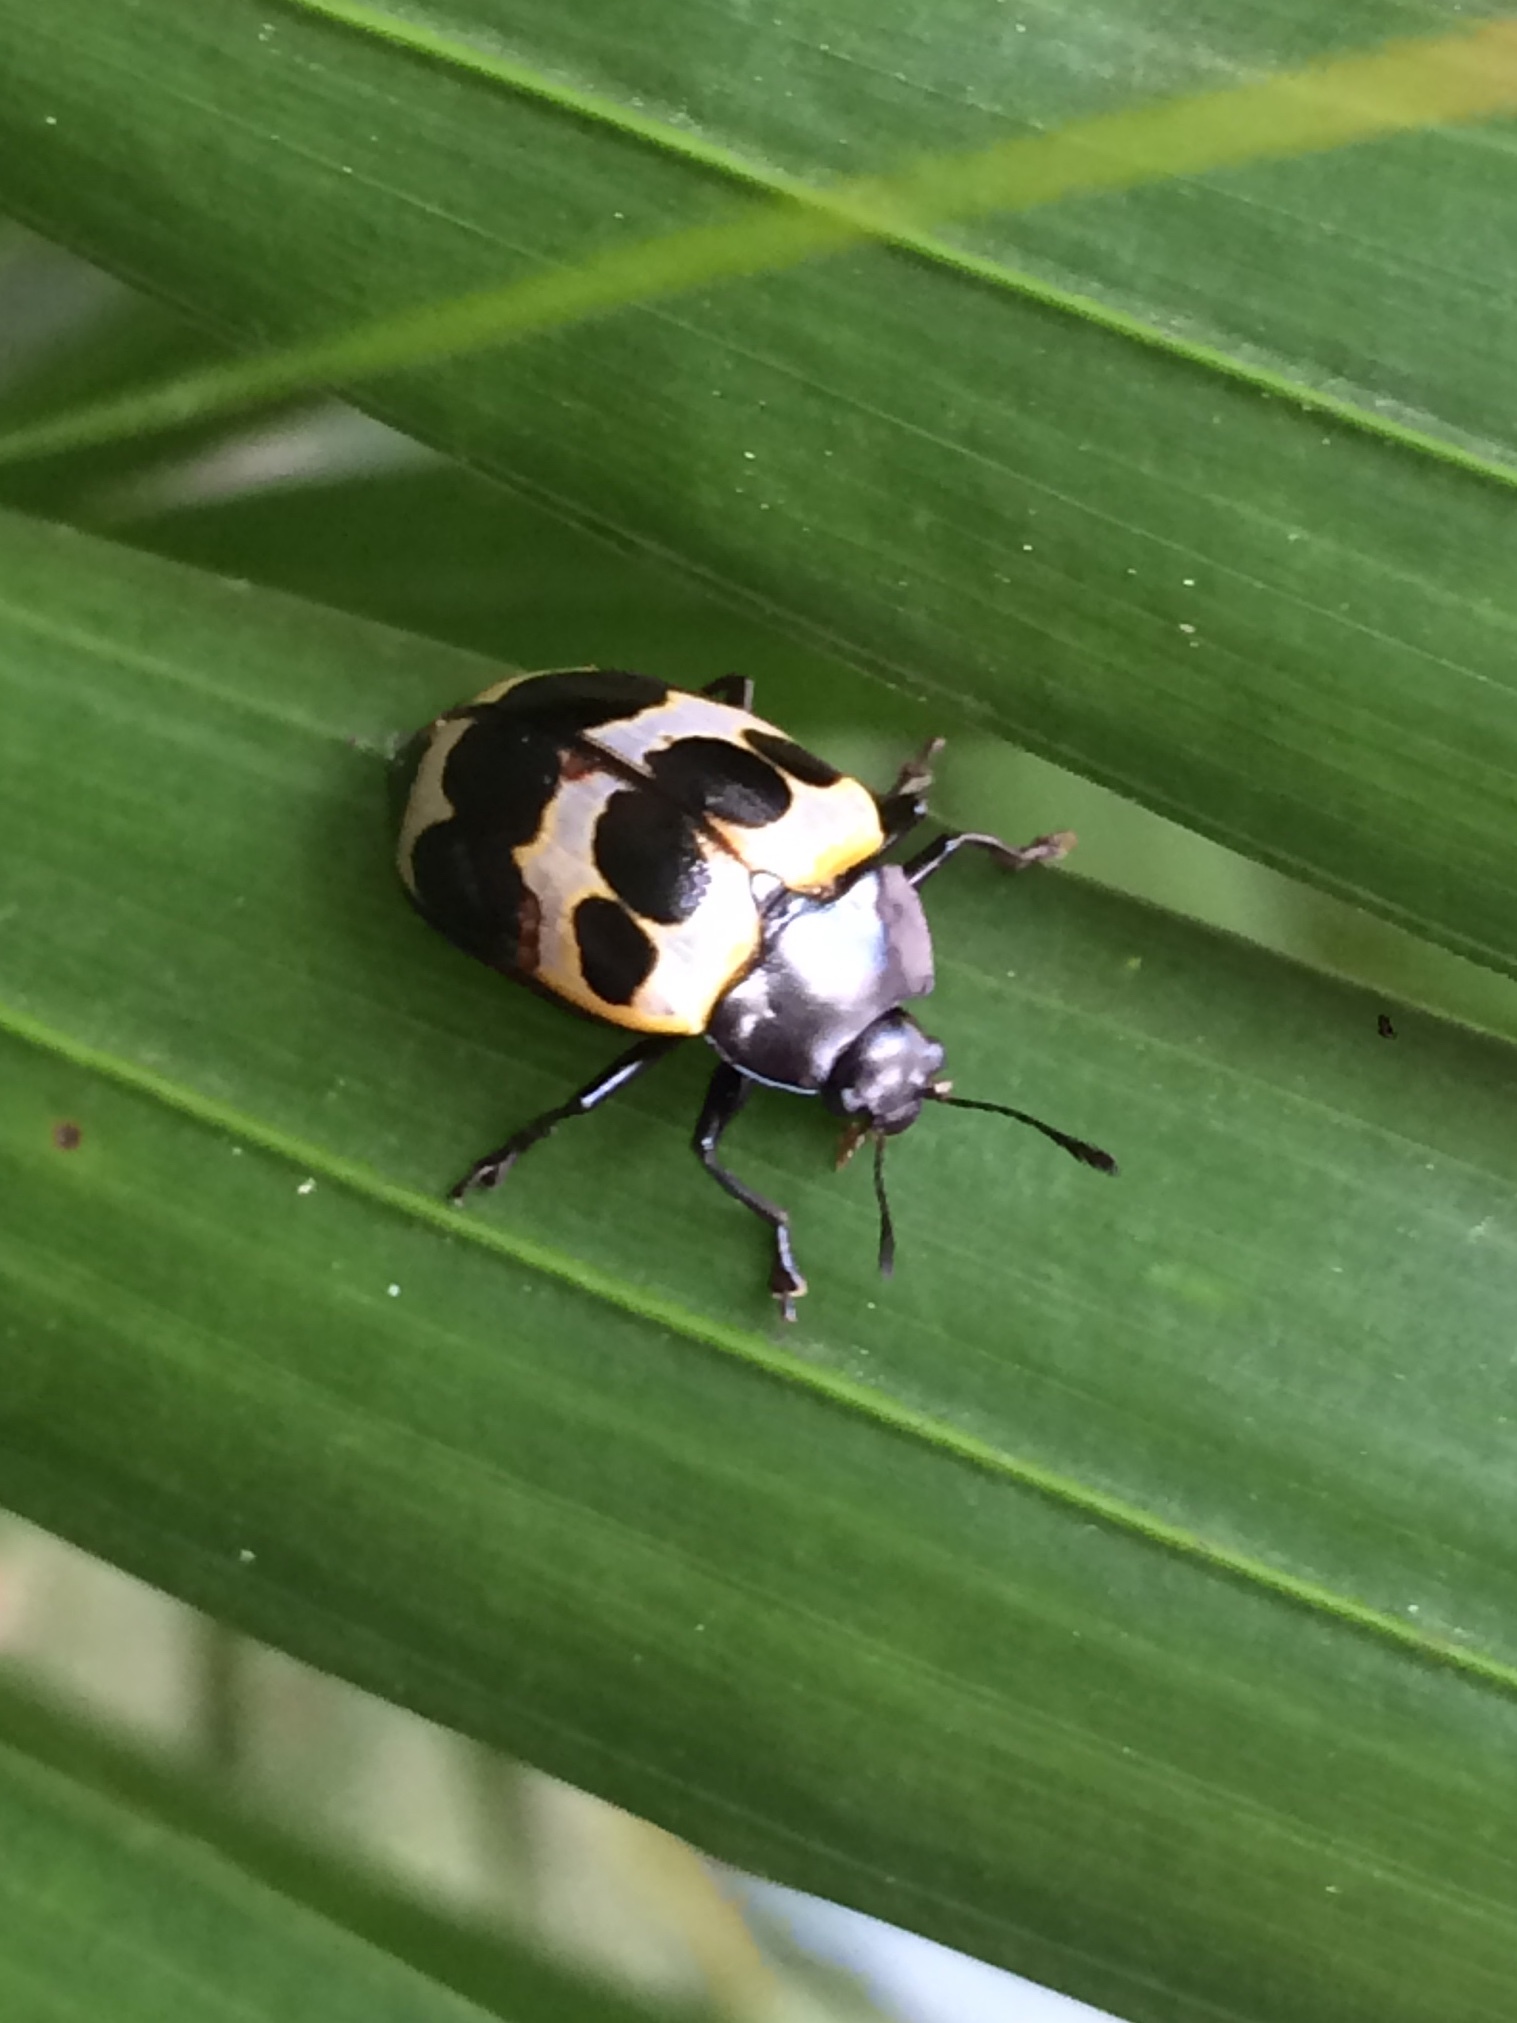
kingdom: Animalia
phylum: Arthropoda
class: Insecta
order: Coleoptera
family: Erotylidae
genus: Oligocorynus
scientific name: Oligocorynus
